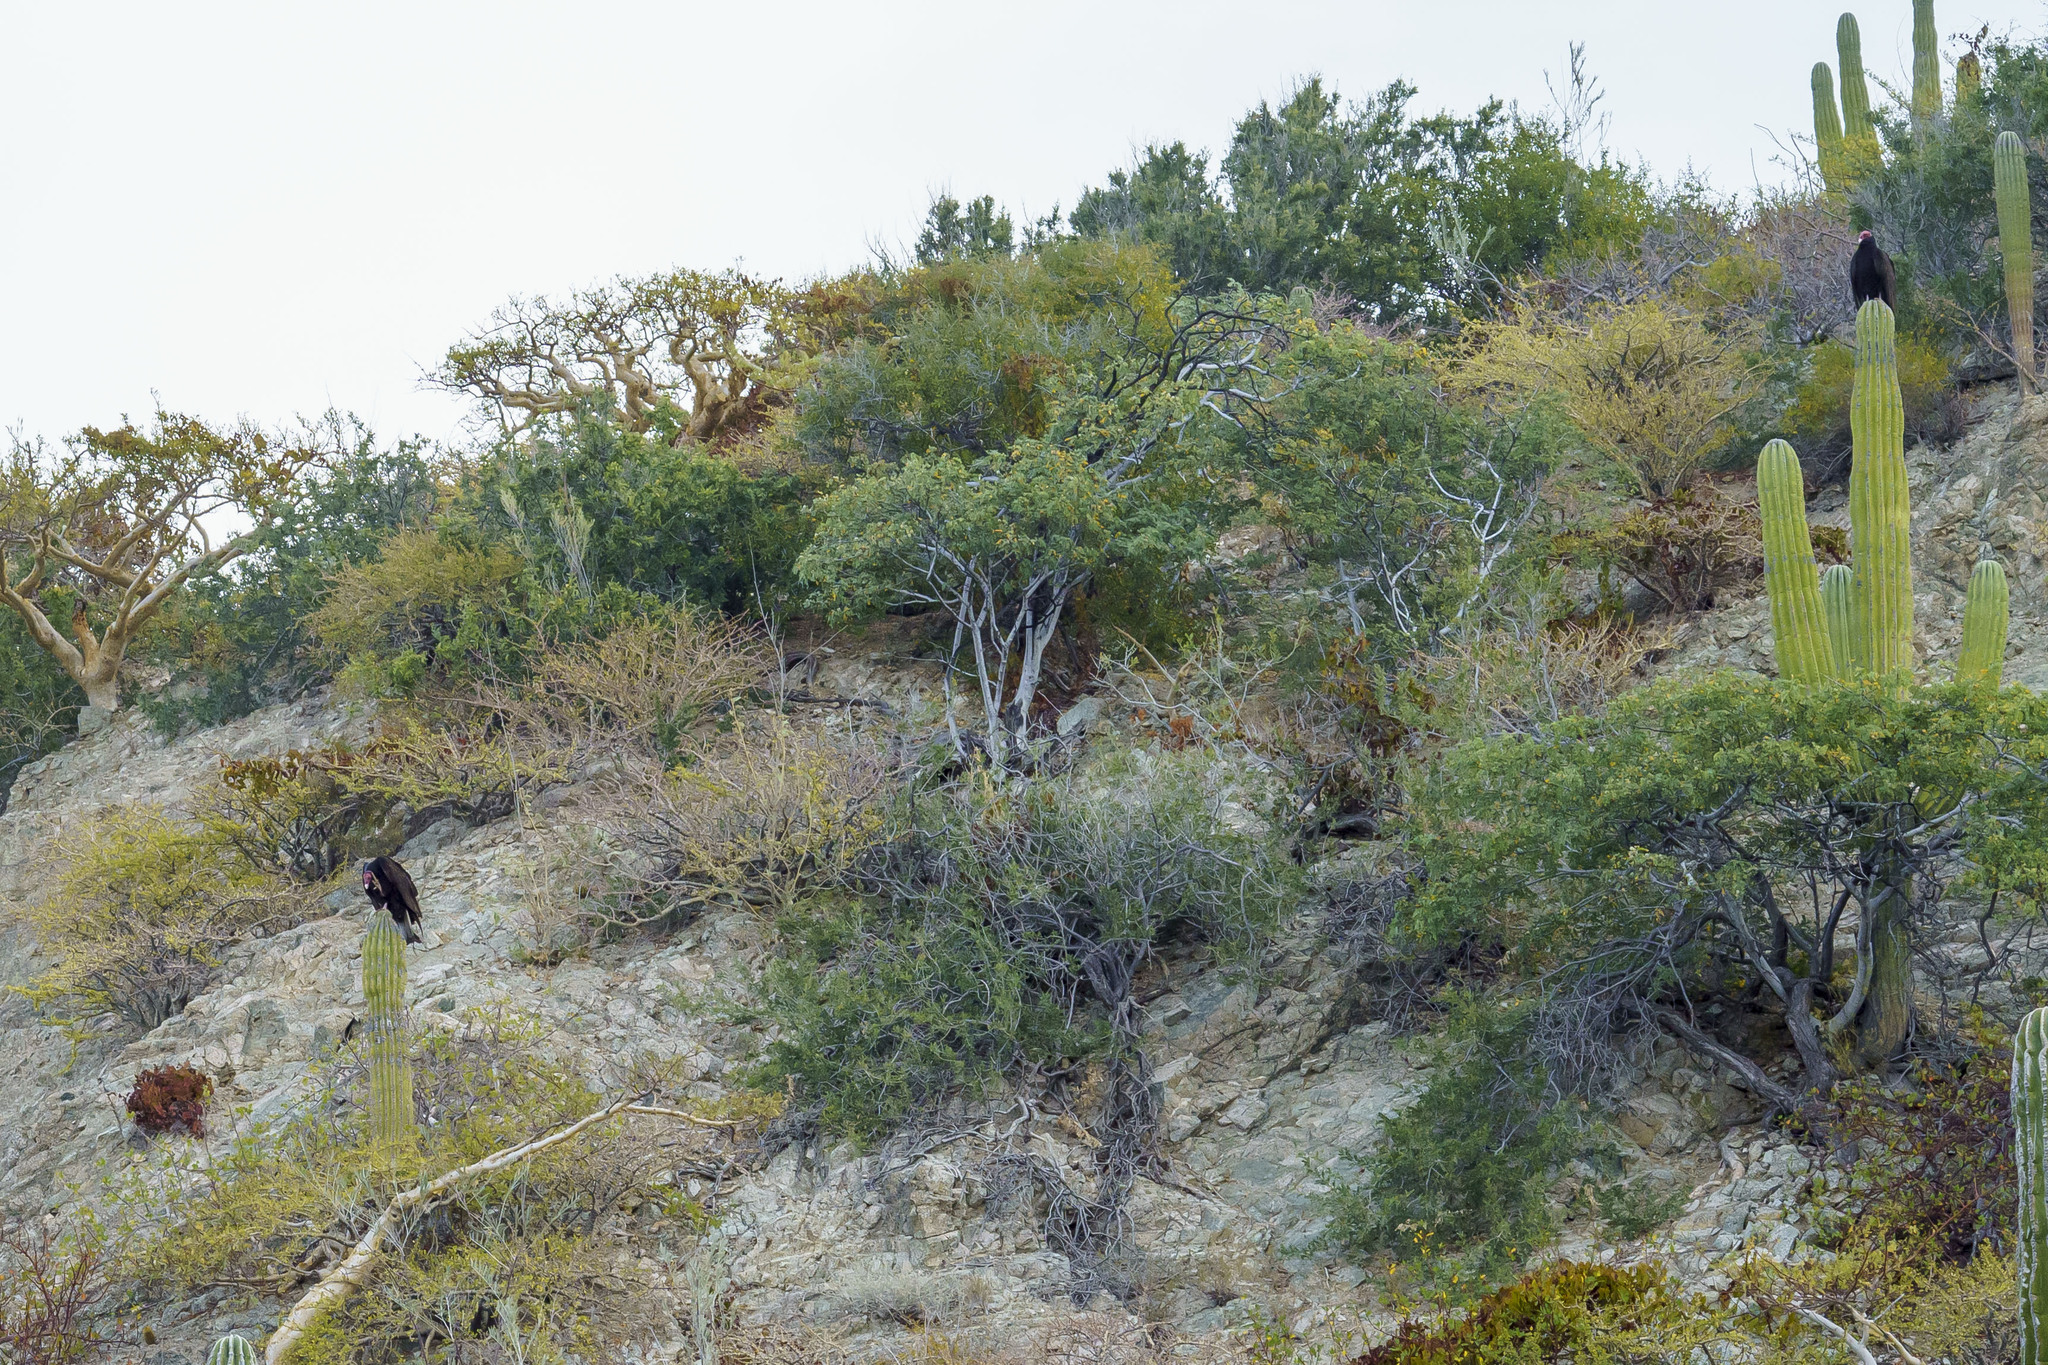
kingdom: Animalia
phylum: Chordata
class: Aves
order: Accipitriformes
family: Cathartidae
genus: Cathartes
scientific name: Cathartes aura
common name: Turkey vulture
